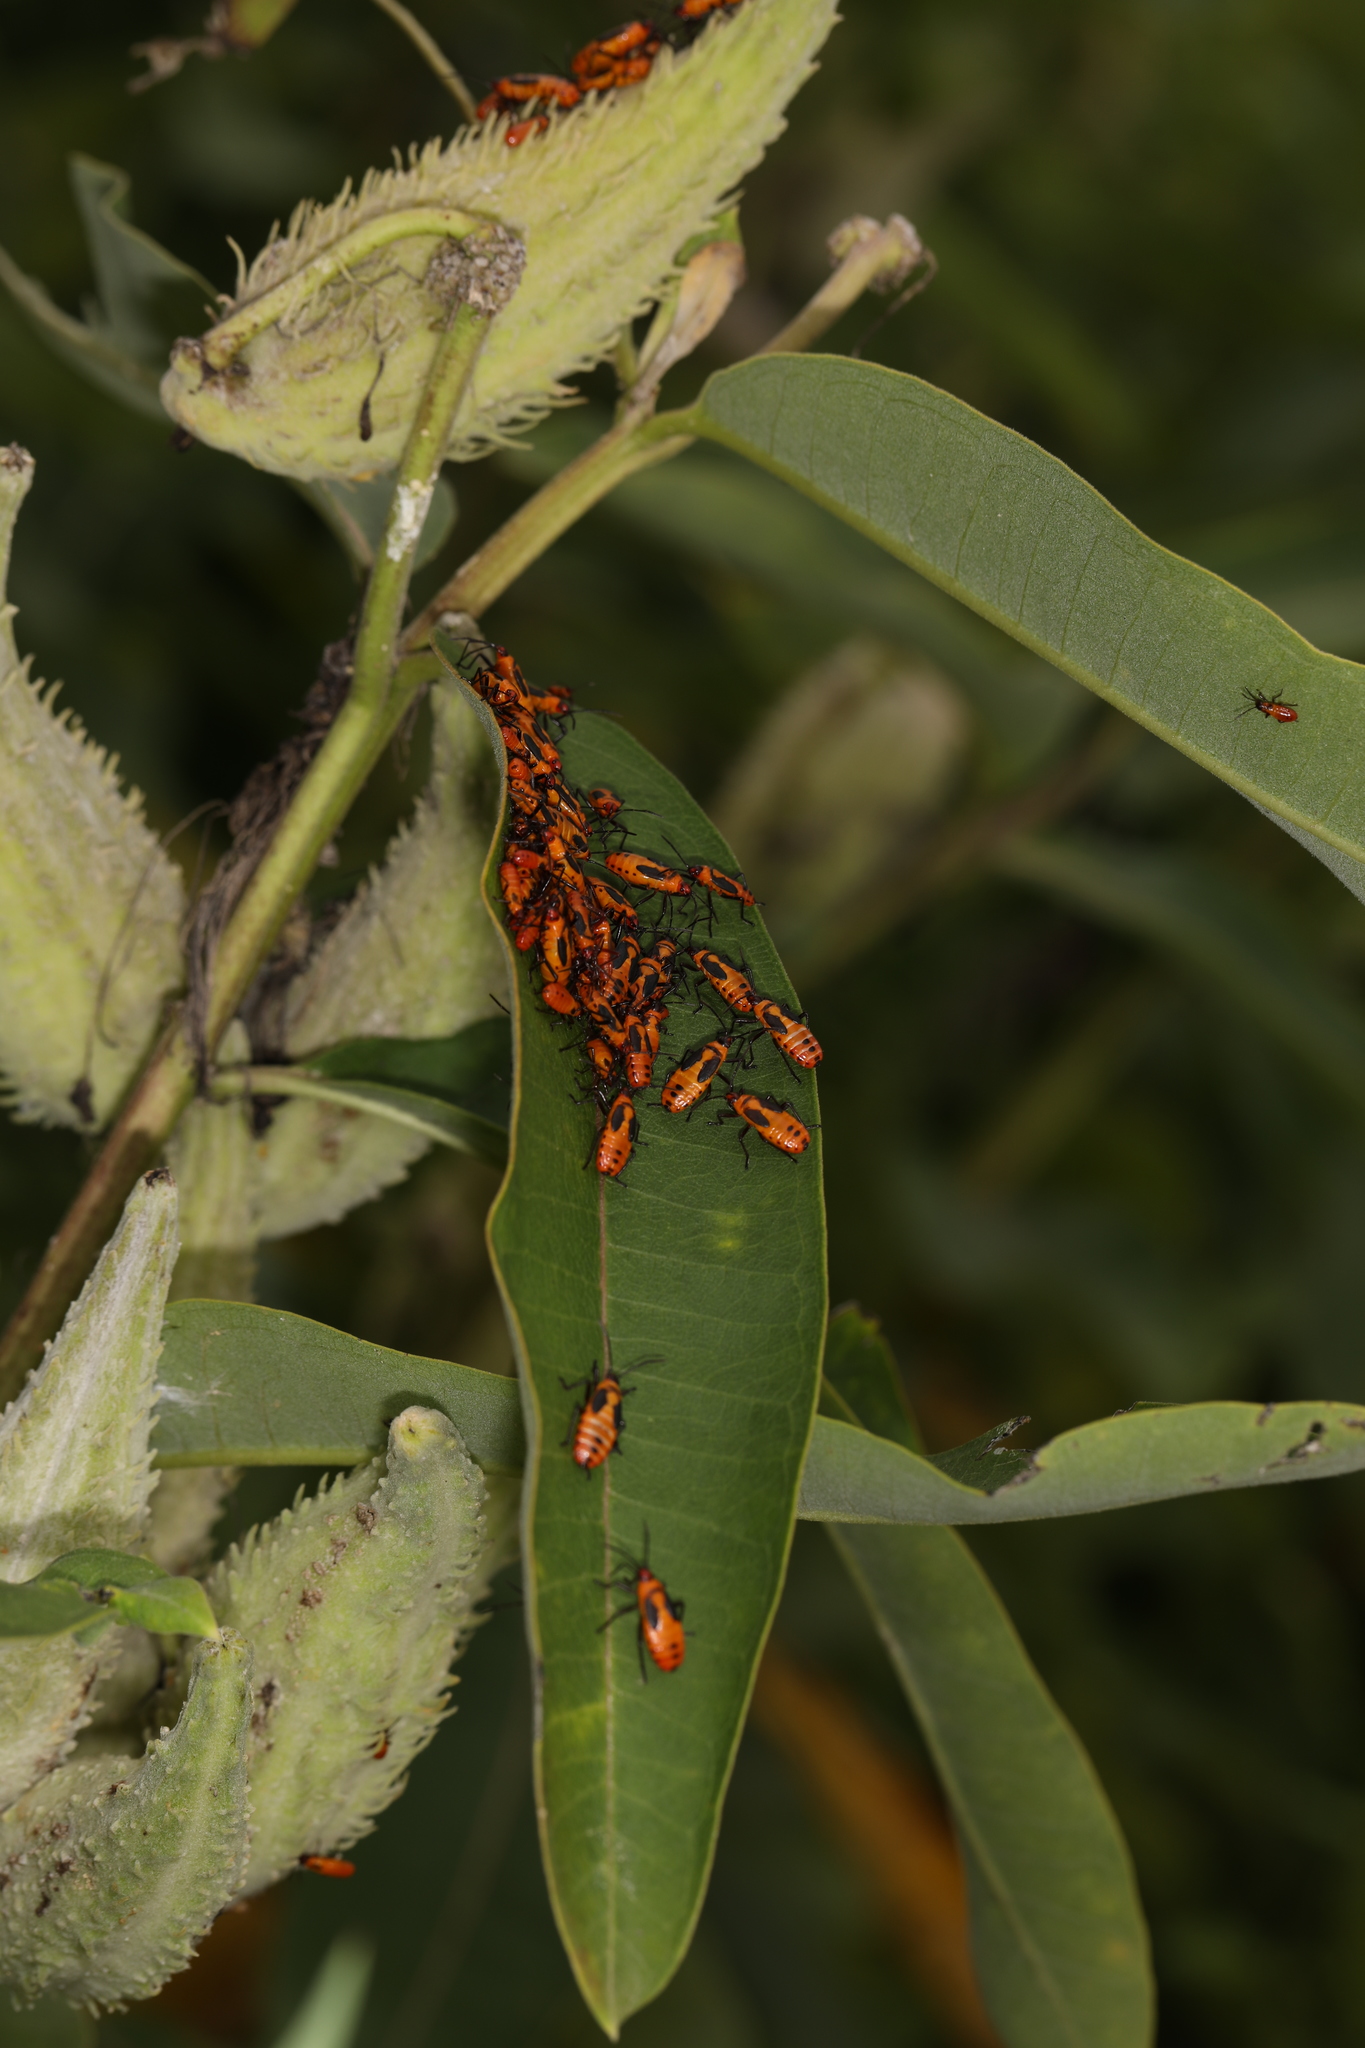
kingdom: Animalia
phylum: Arthropoda
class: Insecta
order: Hemiptera
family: Lygaeidae
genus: Oncopeltus
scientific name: Oncopeltus fasciatus
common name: Large milkweed bug
